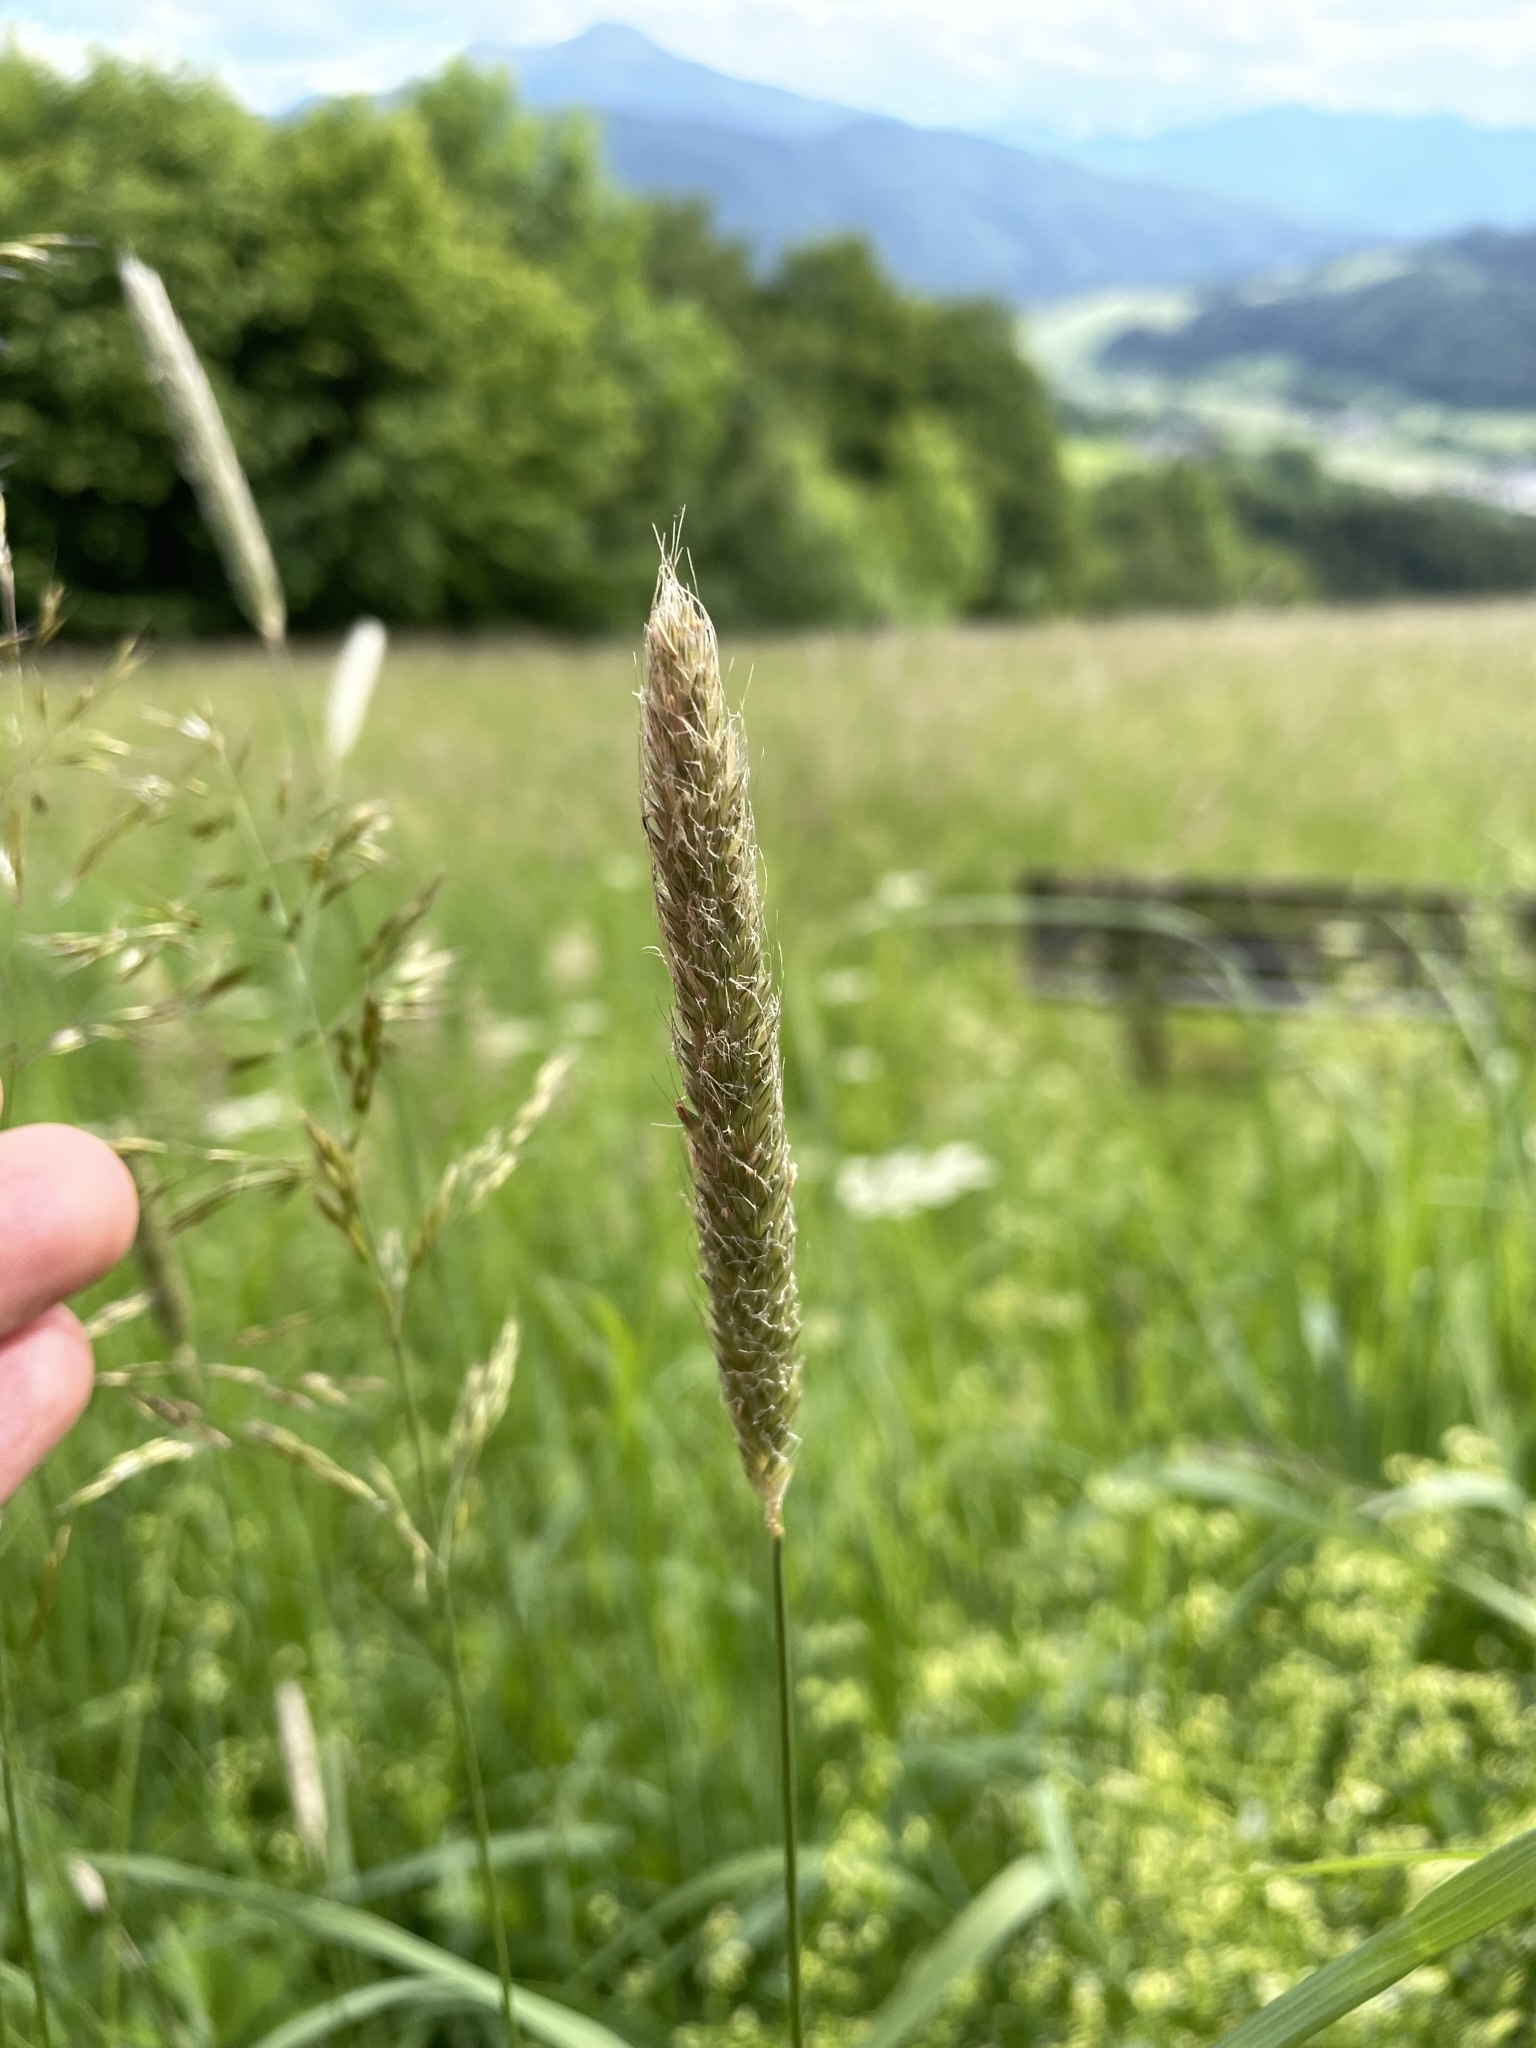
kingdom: Plantae
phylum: Tracheophyta
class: Liliopsida
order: Poales
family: Poaceae
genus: Alopecurus
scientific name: Alopecurus pratensis
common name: Meadow foxtail
